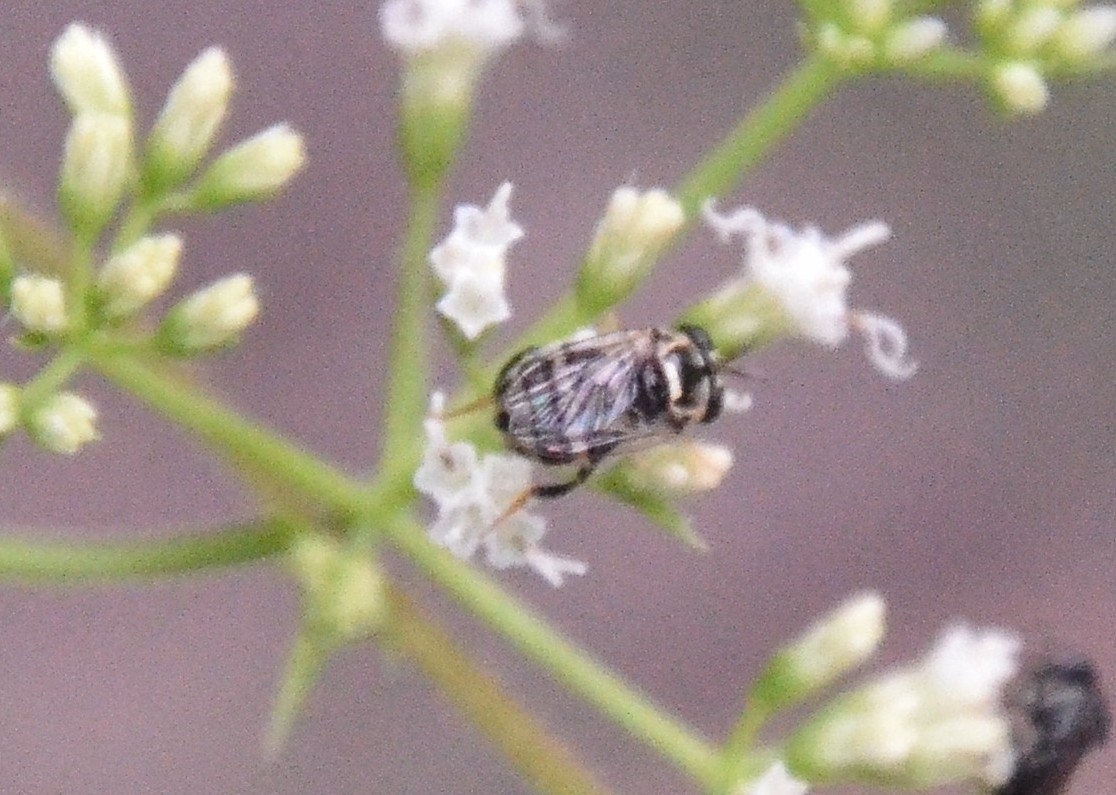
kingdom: Animalia
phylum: Arthropoda
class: Insecta
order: Diptera
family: Syrphidae
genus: Graptomyza
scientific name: Graptomyza brevirostris
